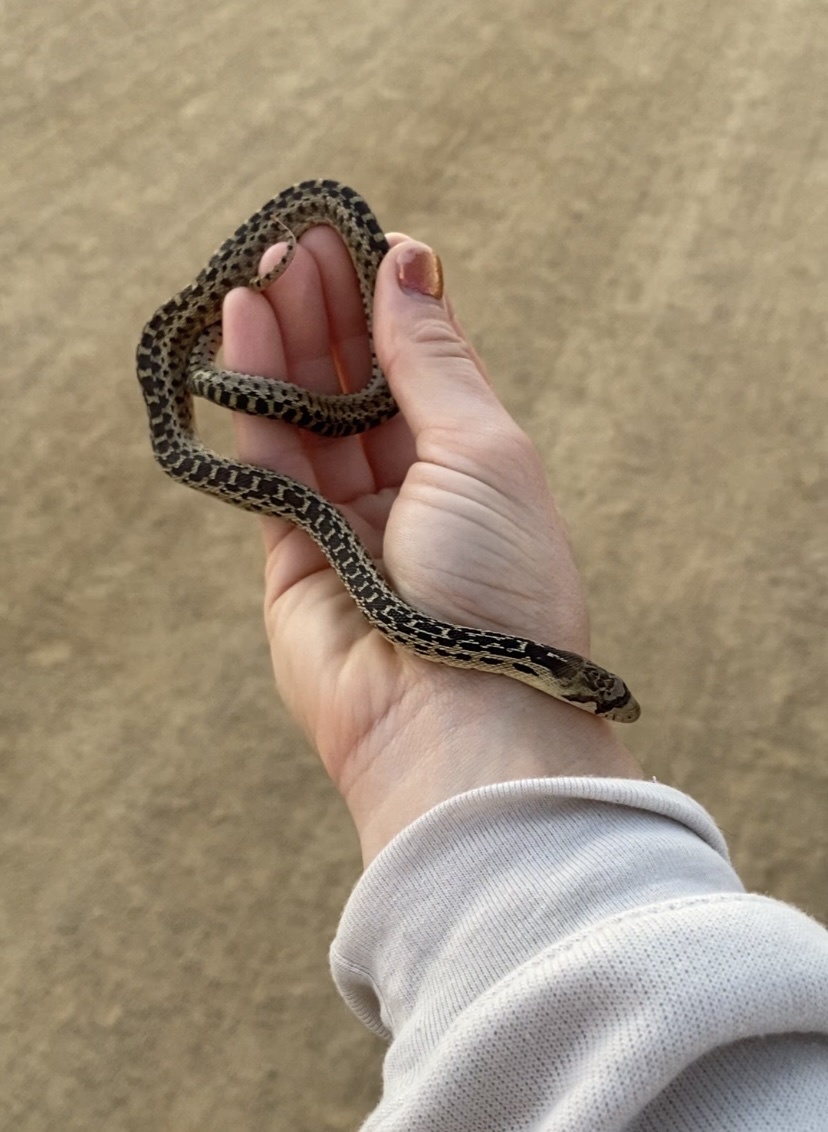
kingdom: Animalia
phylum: Chordata
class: Squamata
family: Colubridae
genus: Pituophis
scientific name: Pituophis catenifer
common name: Gopher snake
